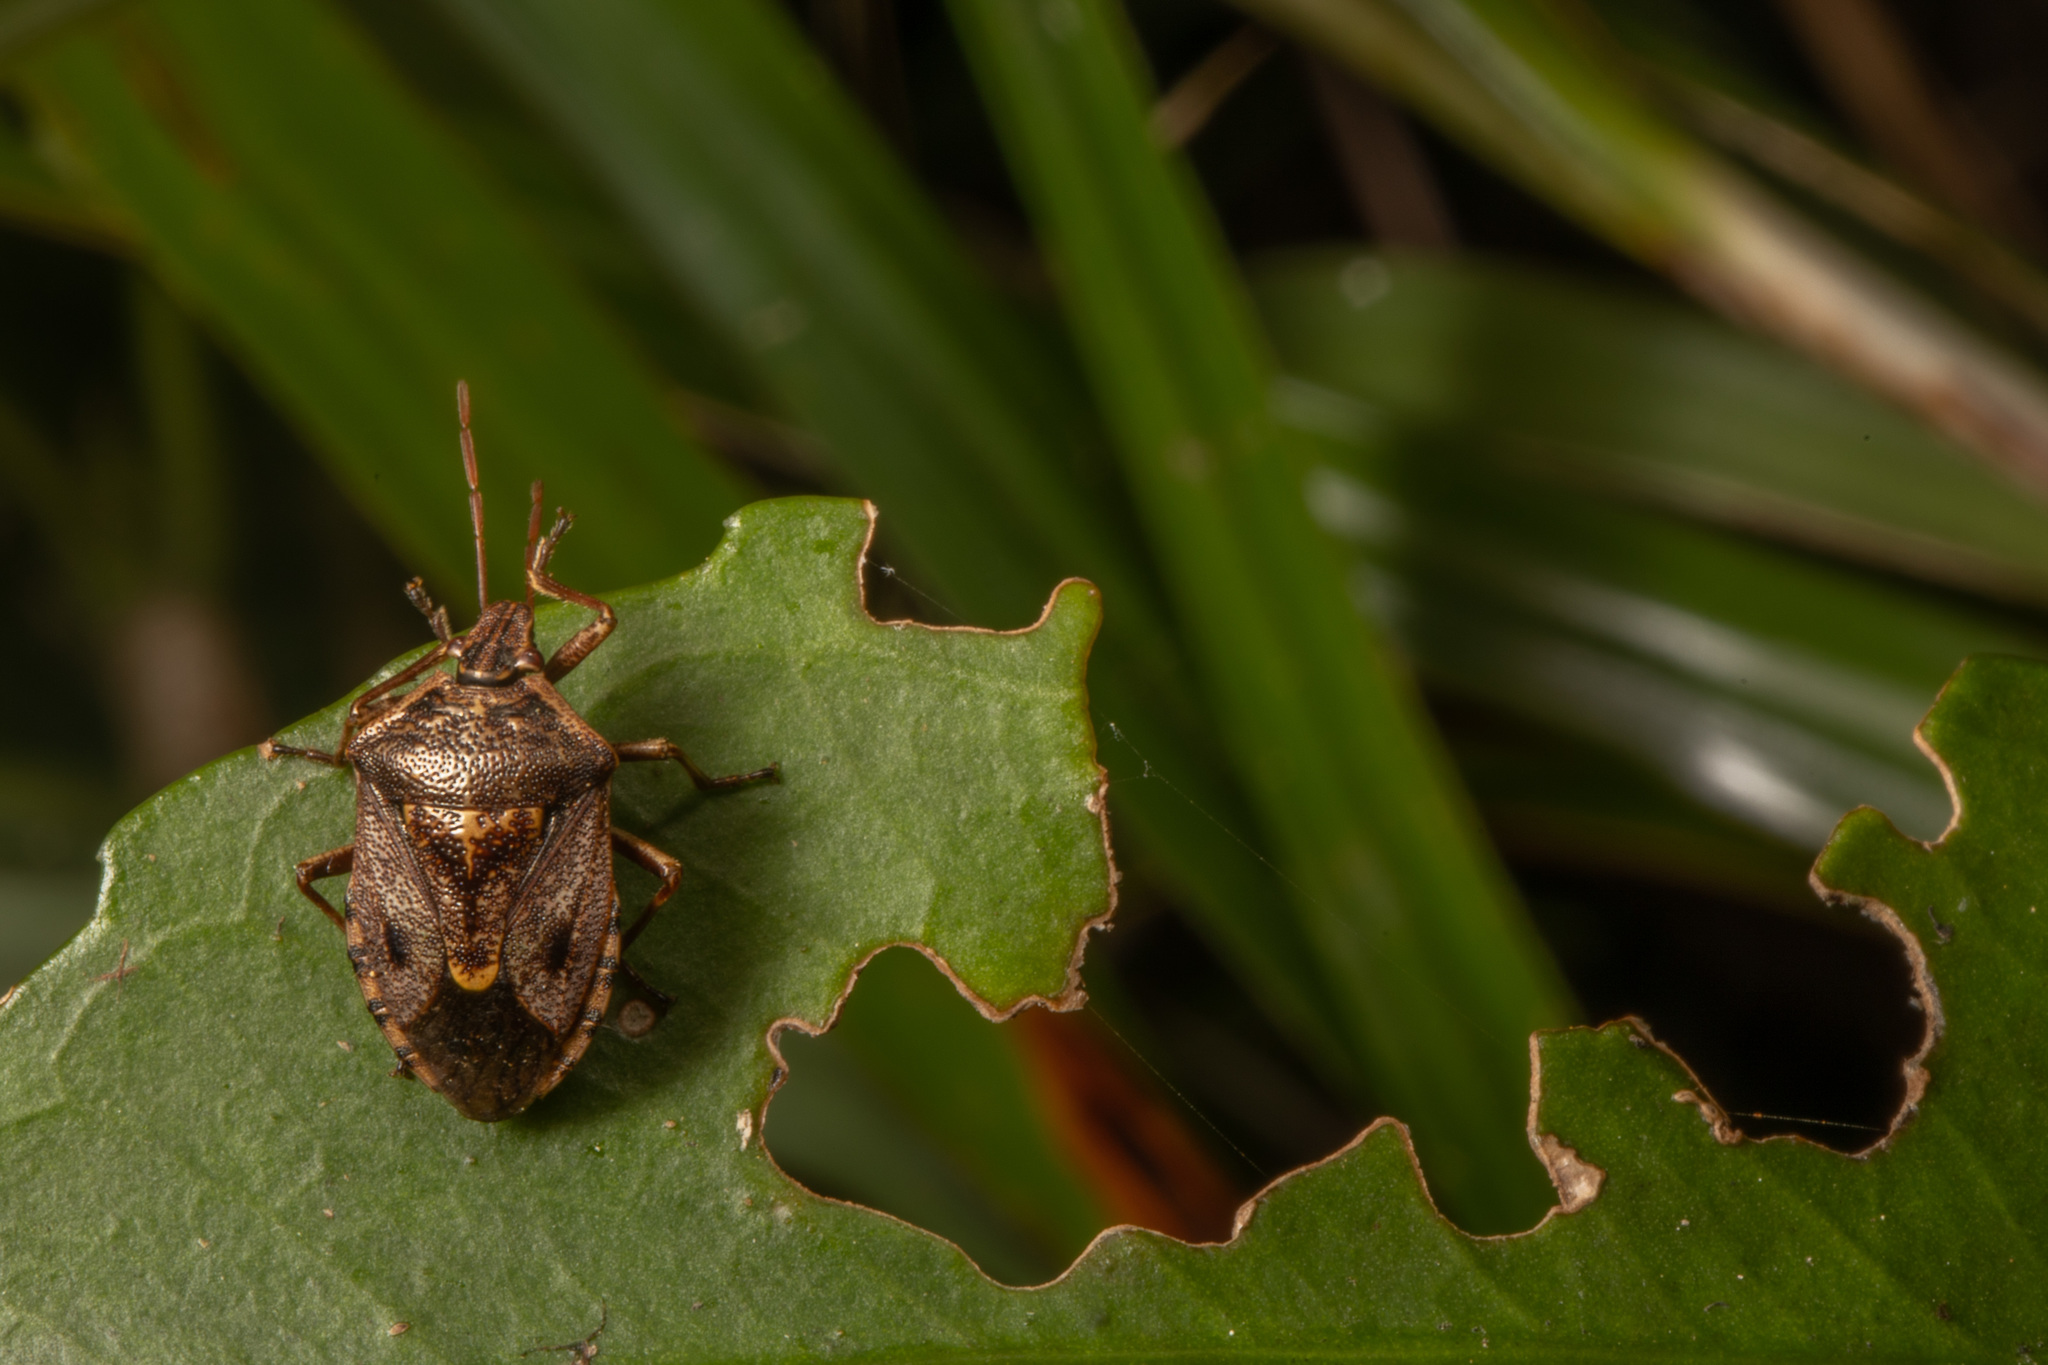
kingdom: Animalia
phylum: Arthropoda
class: Insecta
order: Hemiptera
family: Pentatomidae
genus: Cermatulus
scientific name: Cermatulus nasalis
